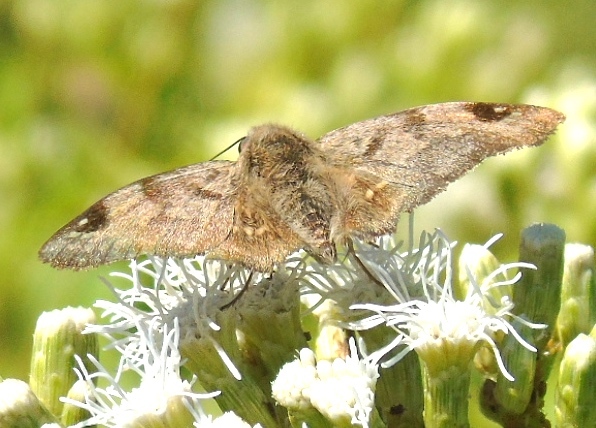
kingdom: Animalia
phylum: Arthropoda
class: Insecta
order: Lepidoptera
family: Hesperiidae
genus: Arteurotia
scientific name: Arteurotia tractipennis
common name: Starred skipper
